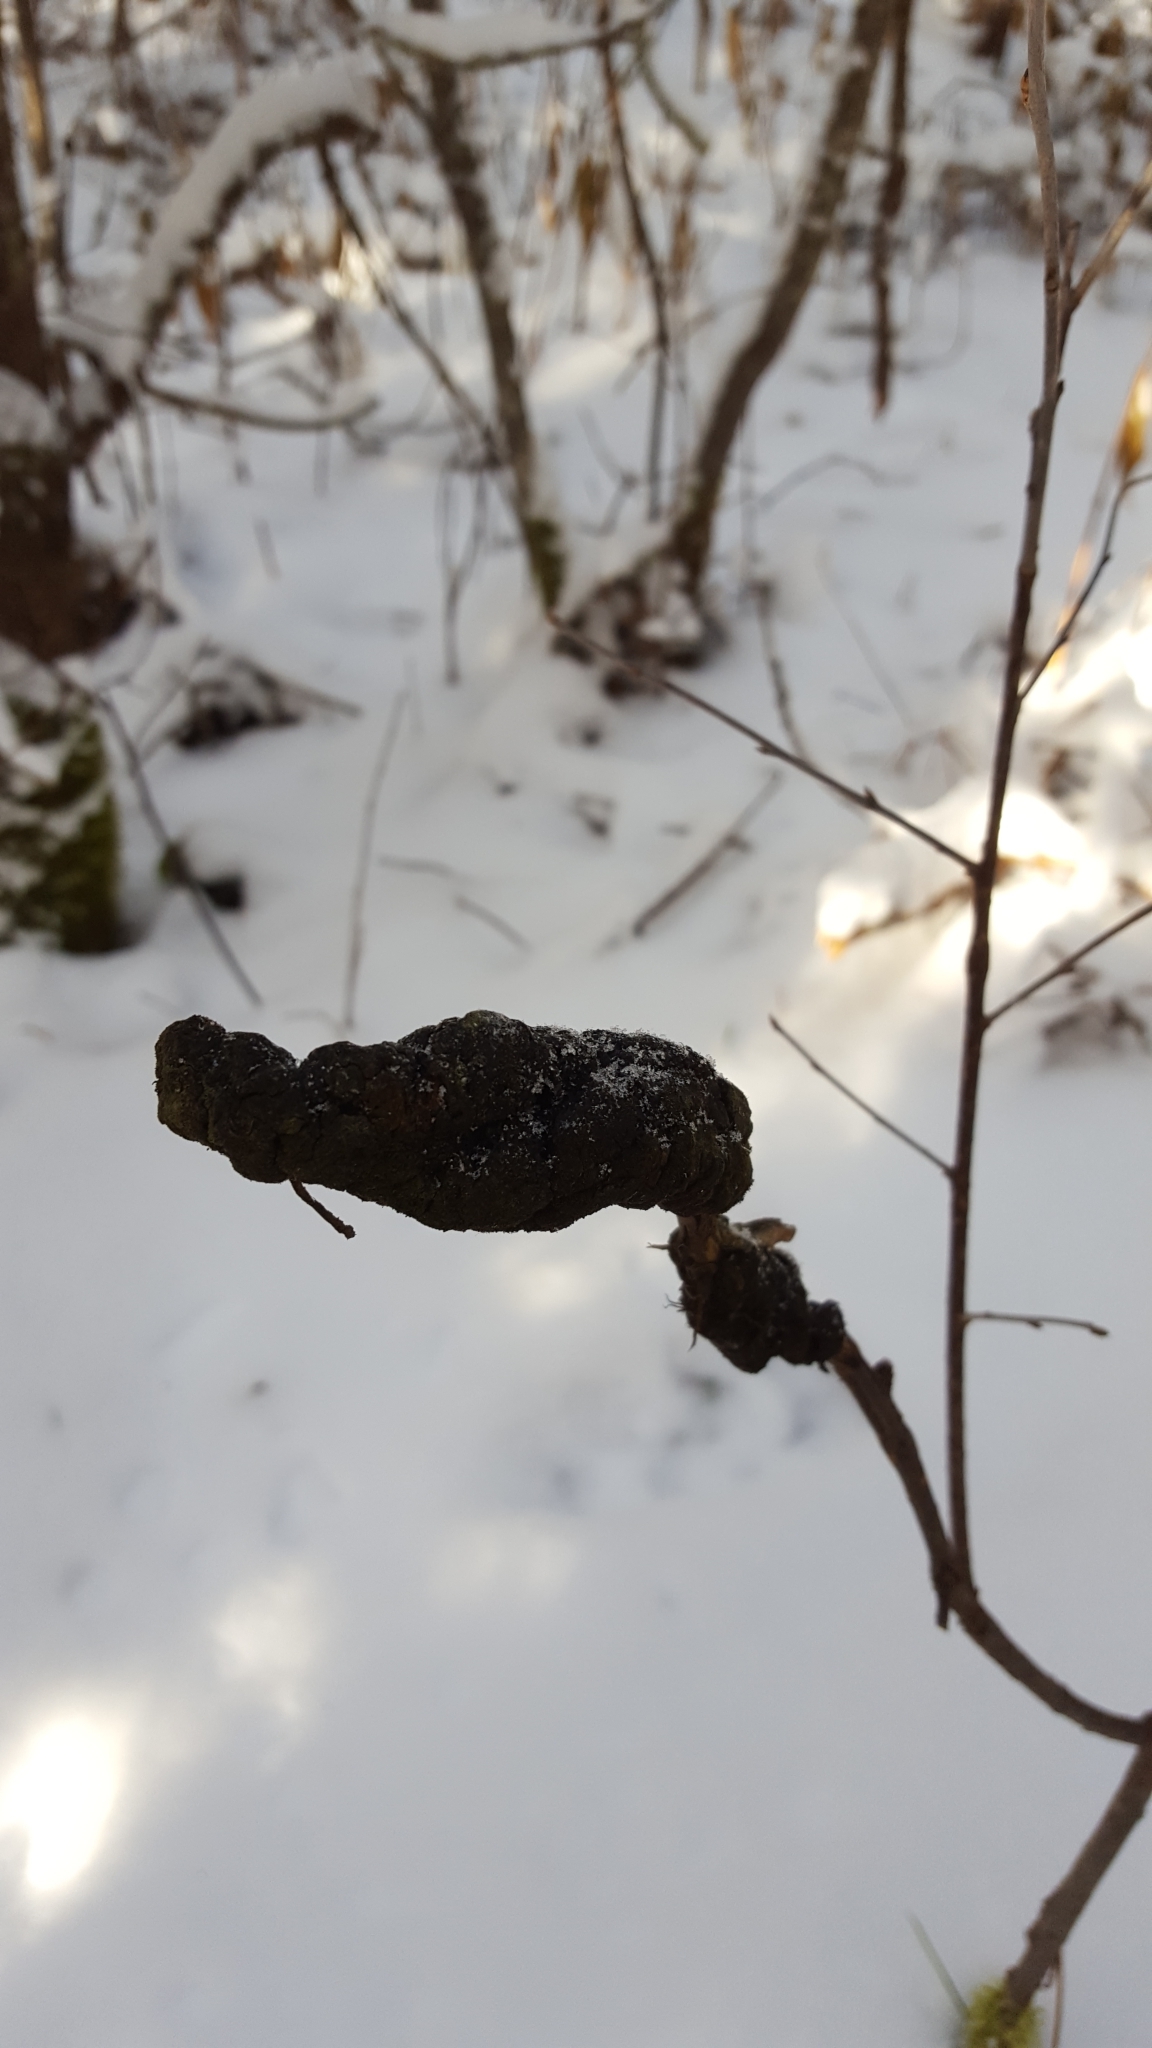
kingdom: Fungi
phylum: Ascomycota
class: Dothideomycetes
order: Venturiales
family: Venturiaceae
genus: Apiosporina
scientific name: Apiosporina morbosa
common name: Black knot
